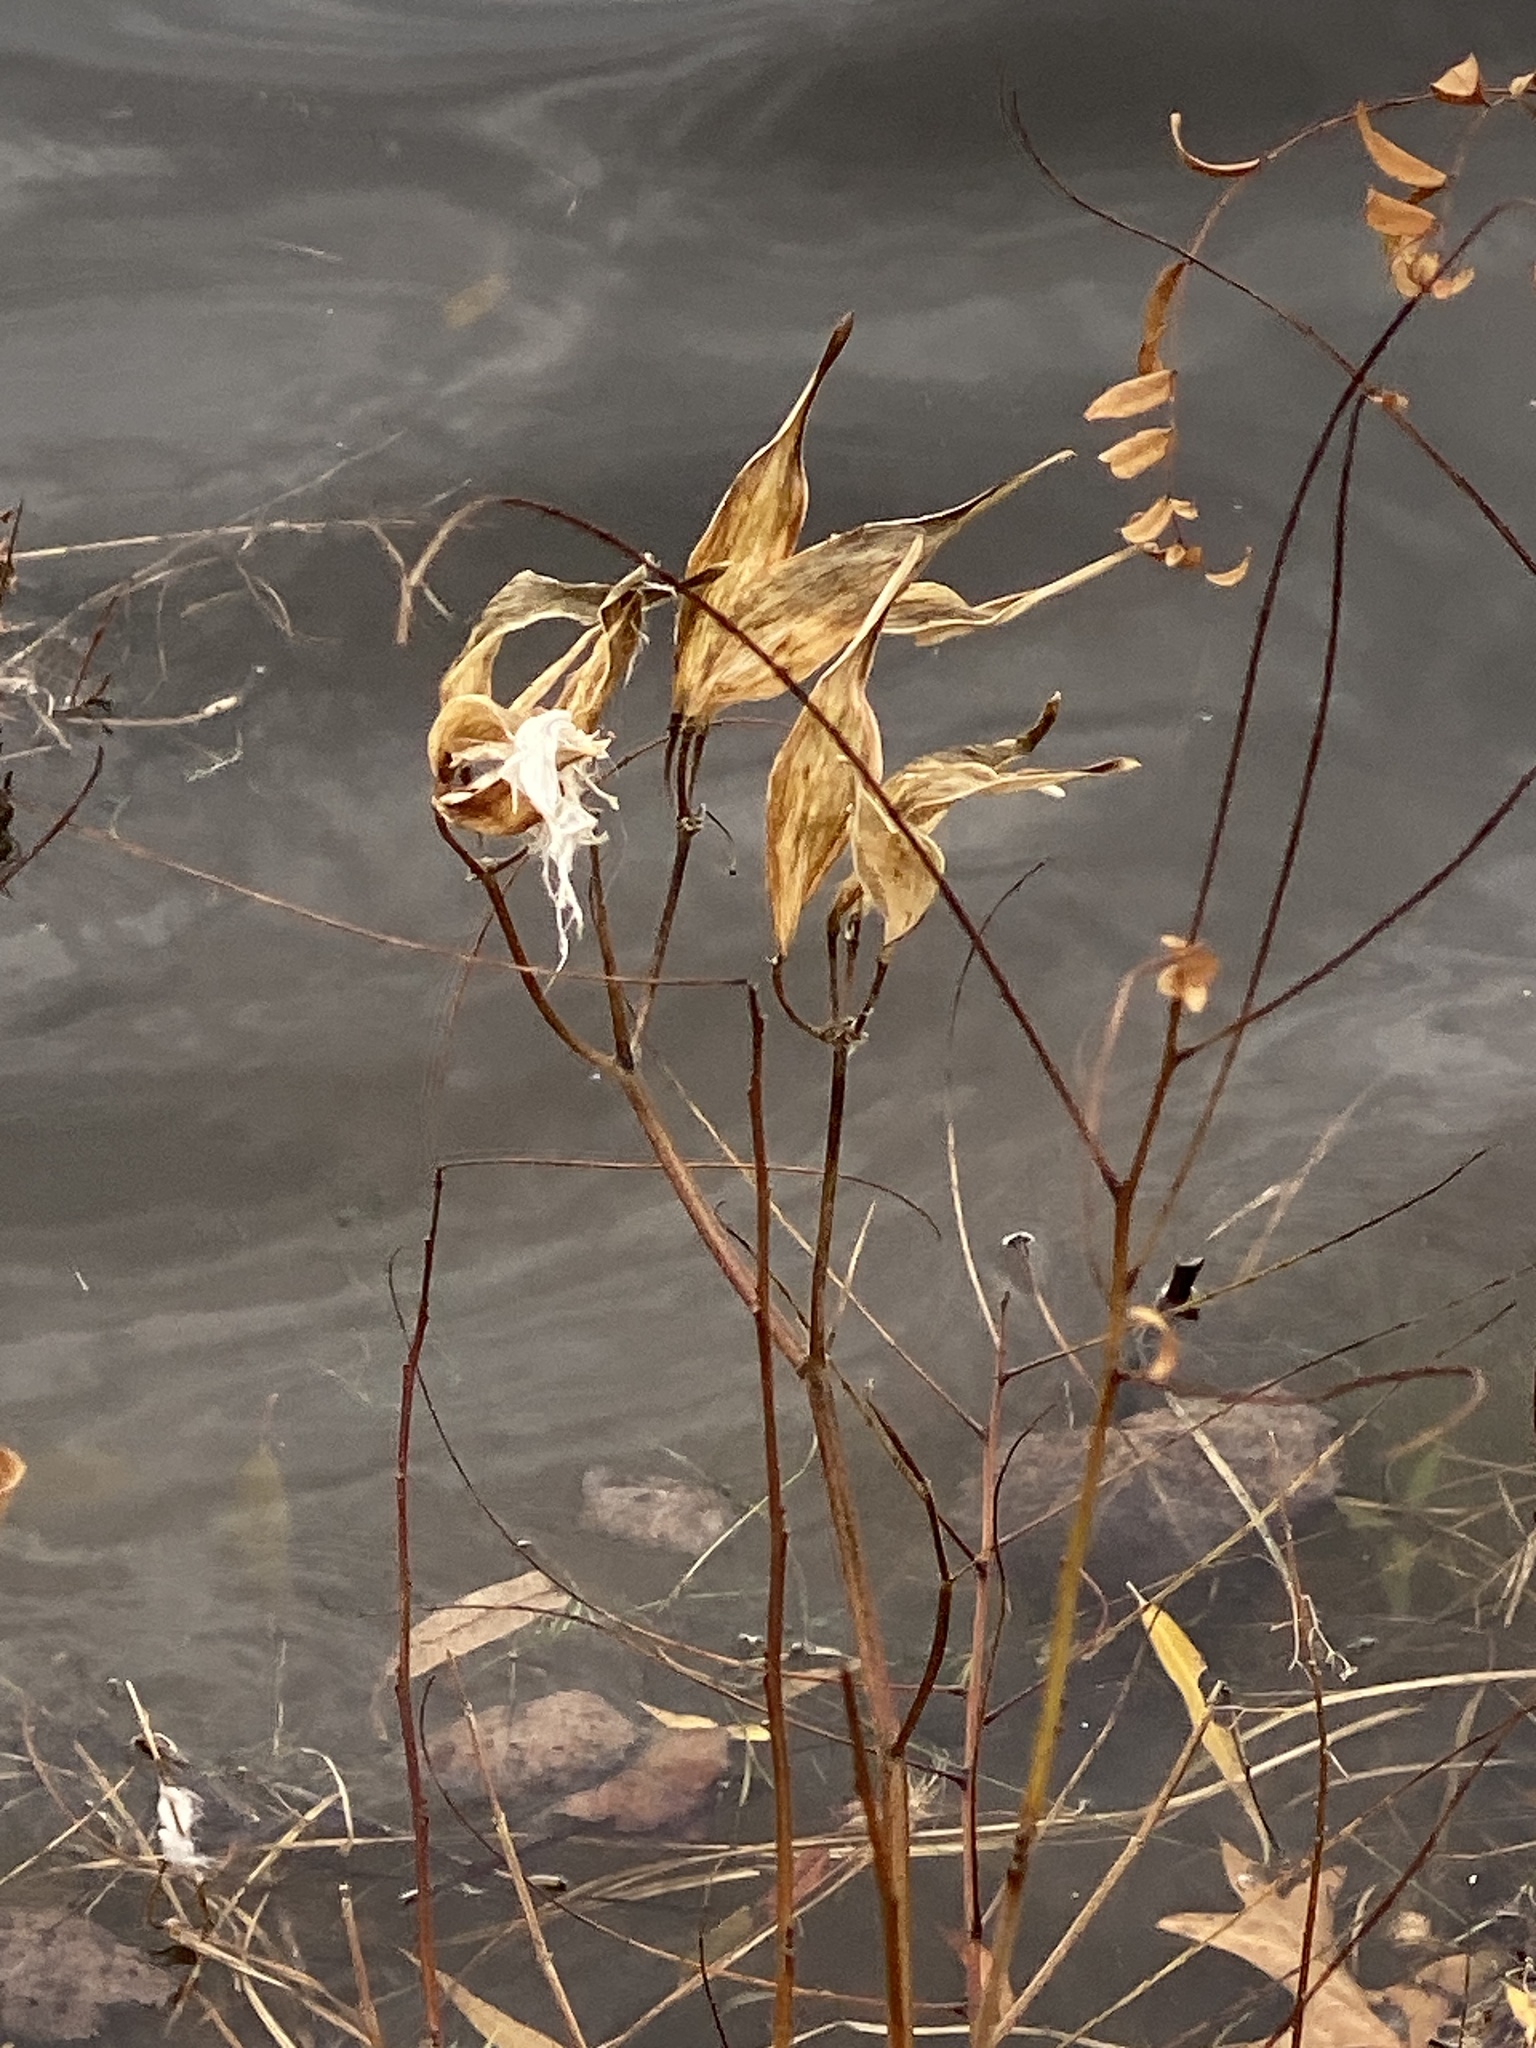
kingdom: Plantae
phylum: Tracheophyta
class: Magnoliopsida
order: Gentianales
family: Apocynaceae
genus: Asclepias
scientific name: Asclepias incarnata
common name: Swamp milkweed
